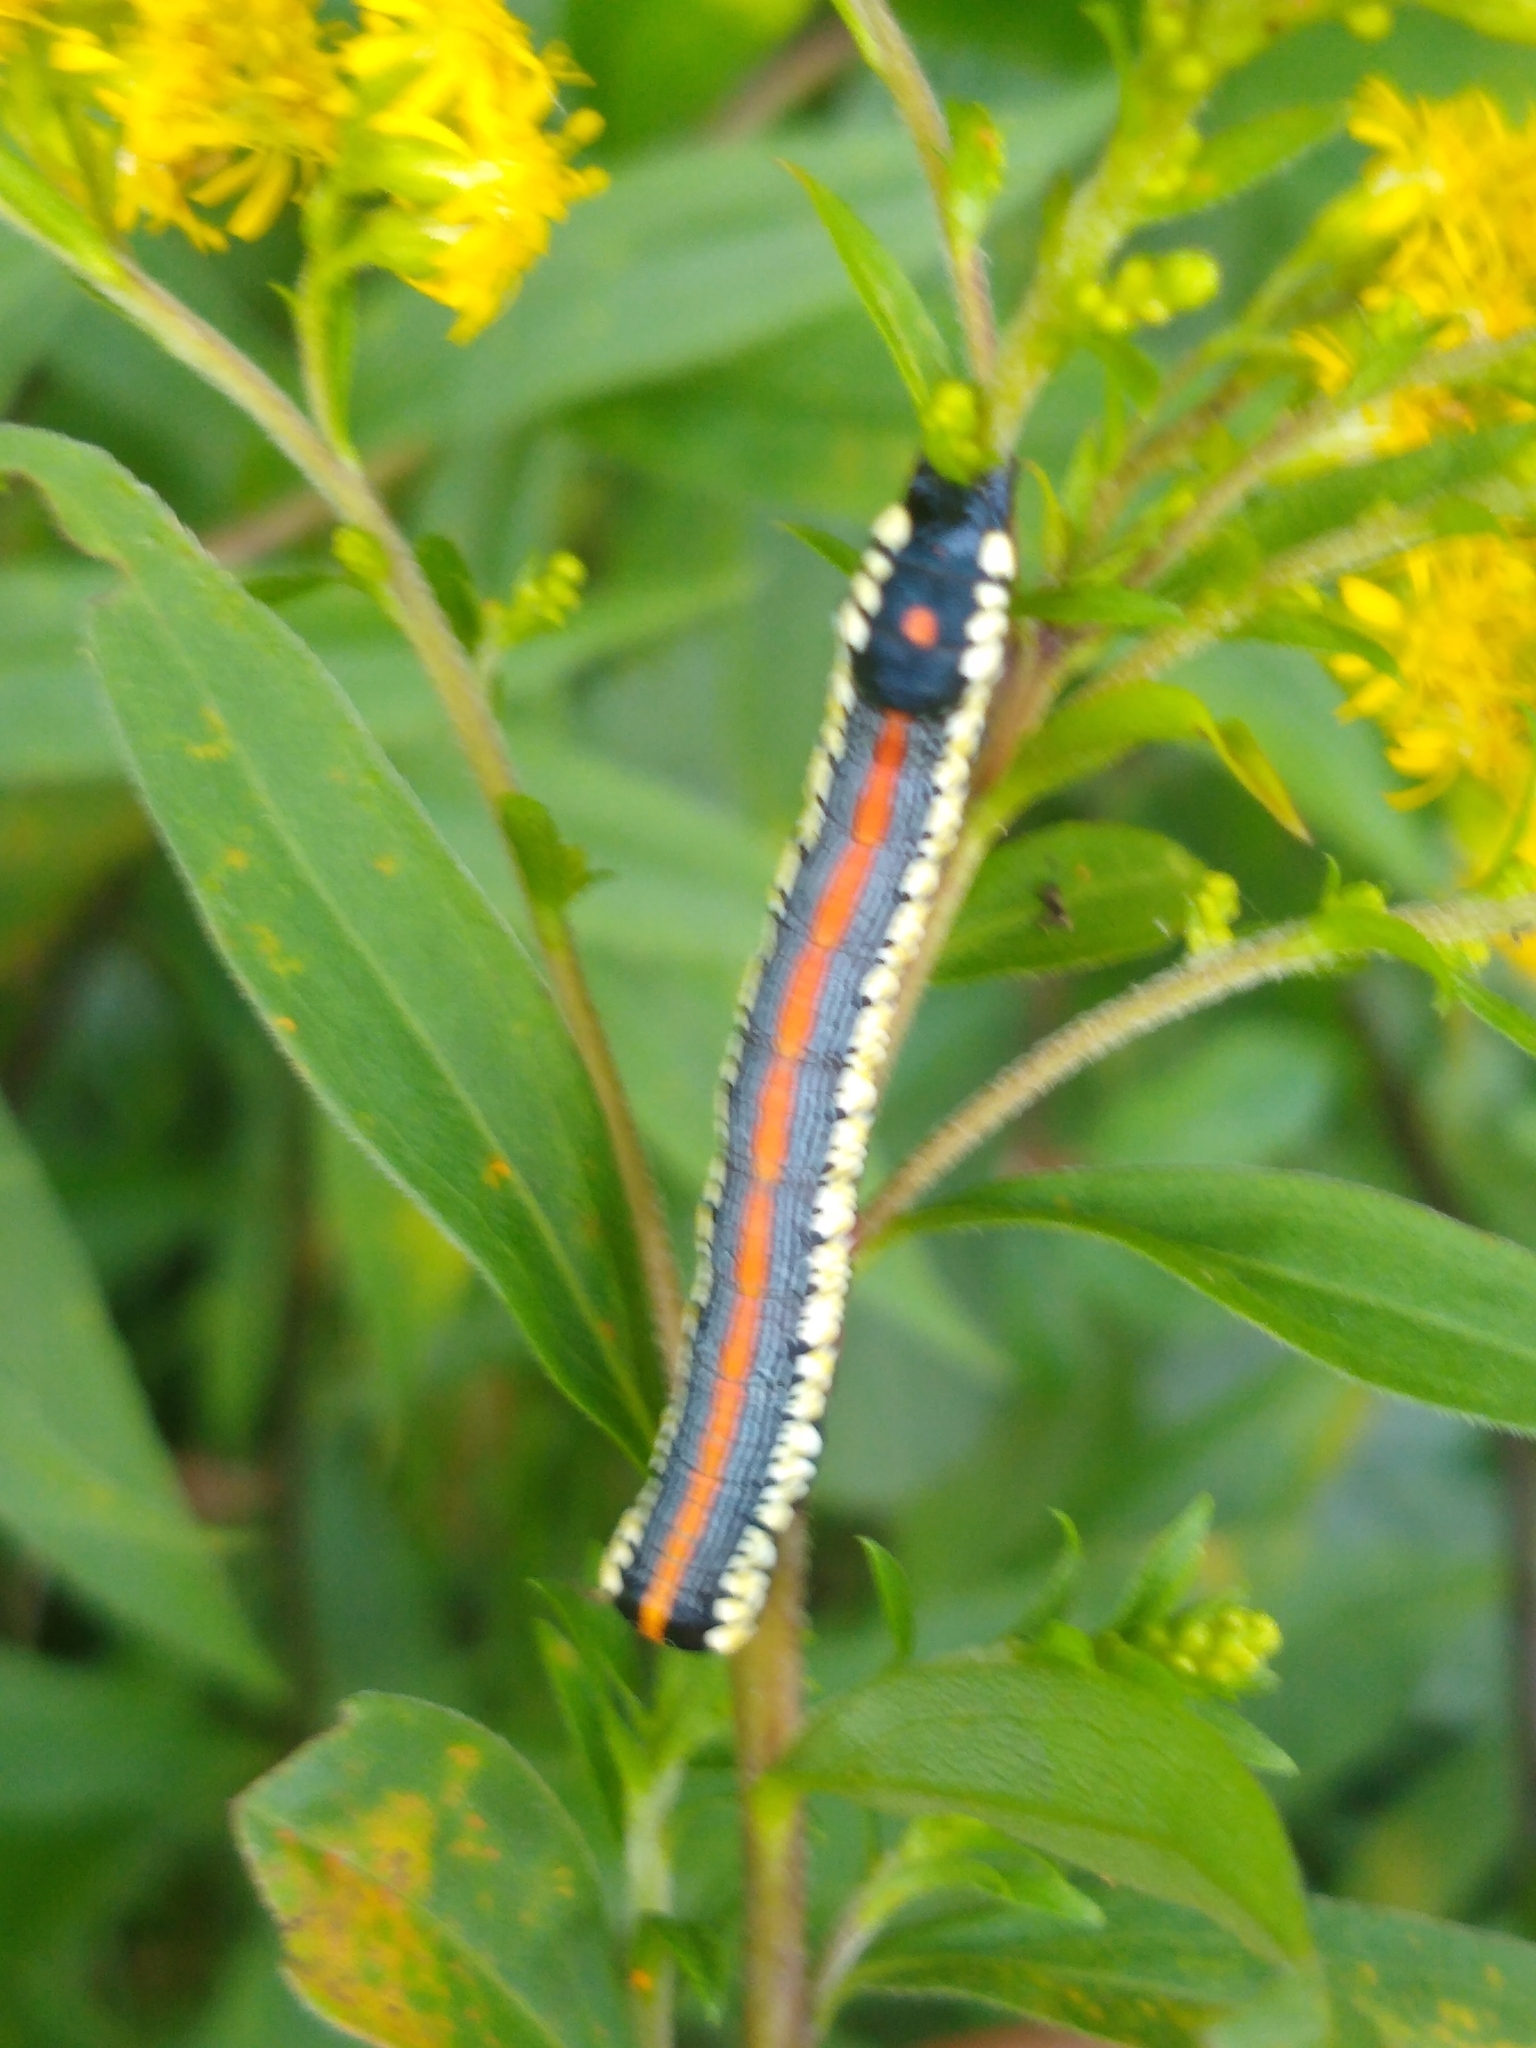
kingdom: Animalia
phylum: Arthropoda
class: Insecta
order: Lepidoptera
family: Noctuidae
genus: Cucullia
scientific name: Cucullia convexipennis
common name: Brown-hooded owlet
